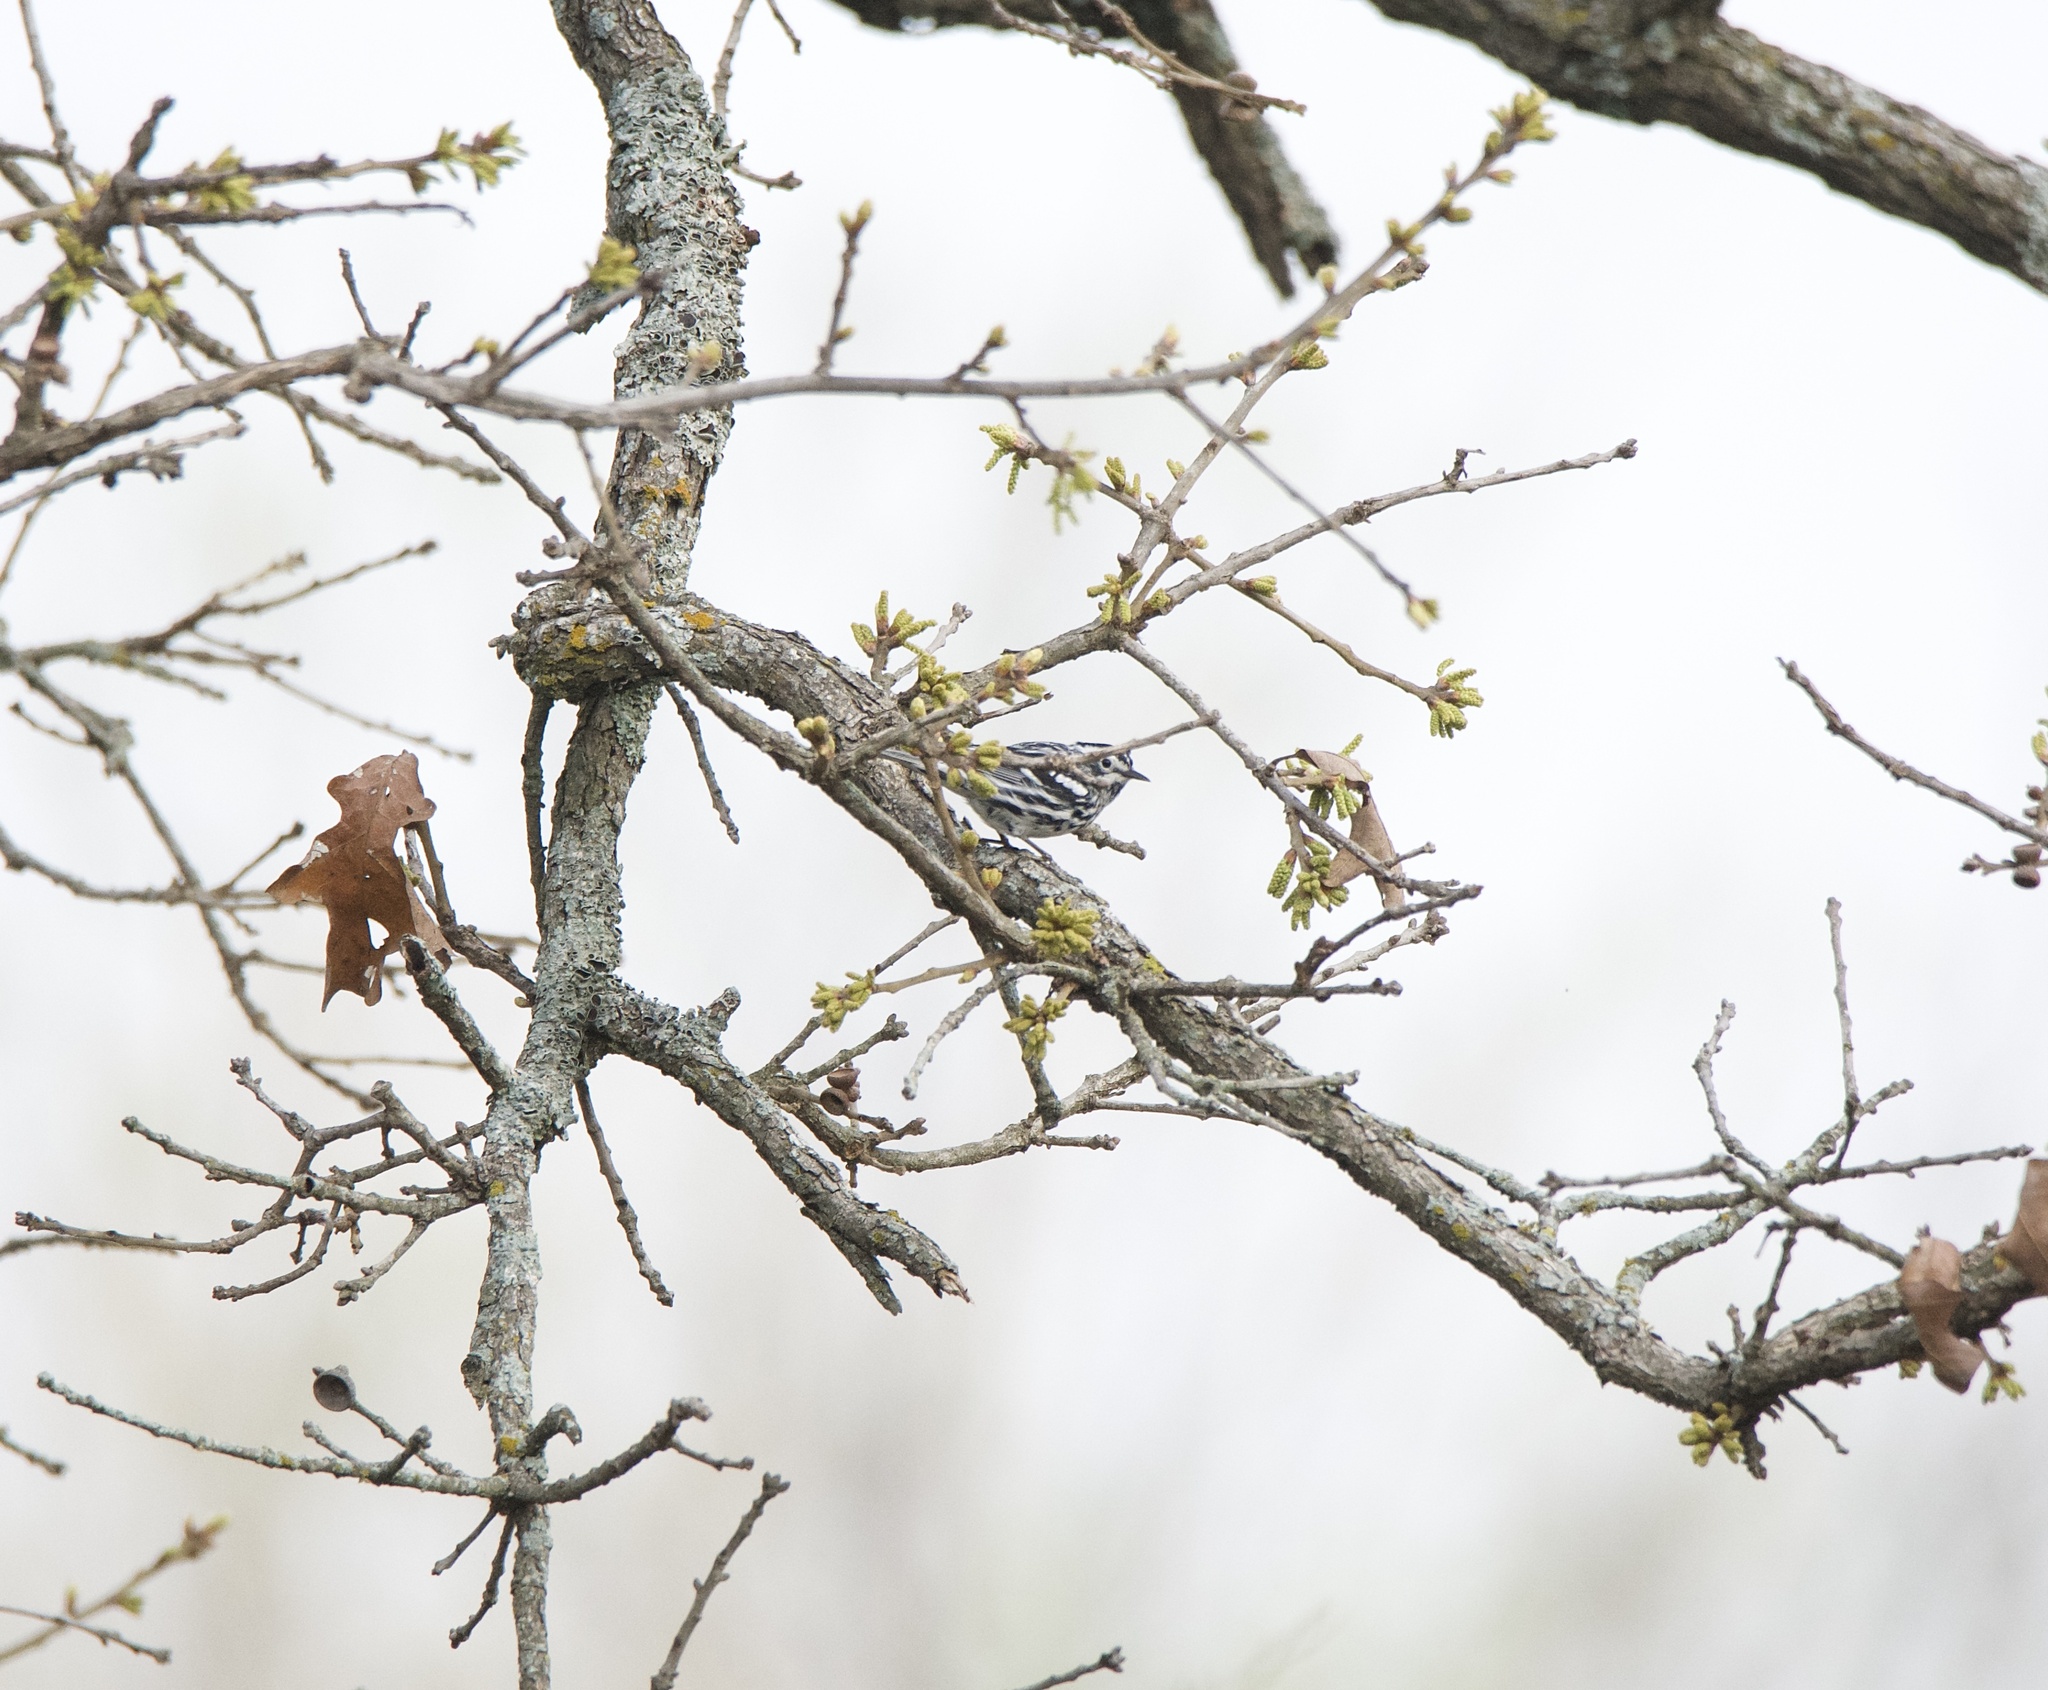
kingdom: Animalia
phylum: Chordata
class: Aves
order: Passeriformes
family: Parulidae
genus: Mniotilta
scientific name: Mniotilta varia
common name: Black-and-white warbler
